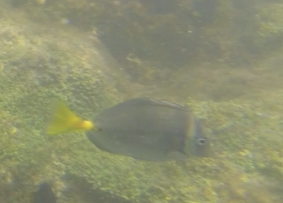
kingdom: Animalia
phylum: Chordata
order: Perciformes
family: Acanthuridae
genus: Prionurus
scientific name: Prionurus laticlavius
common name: Razor surgeonfish
